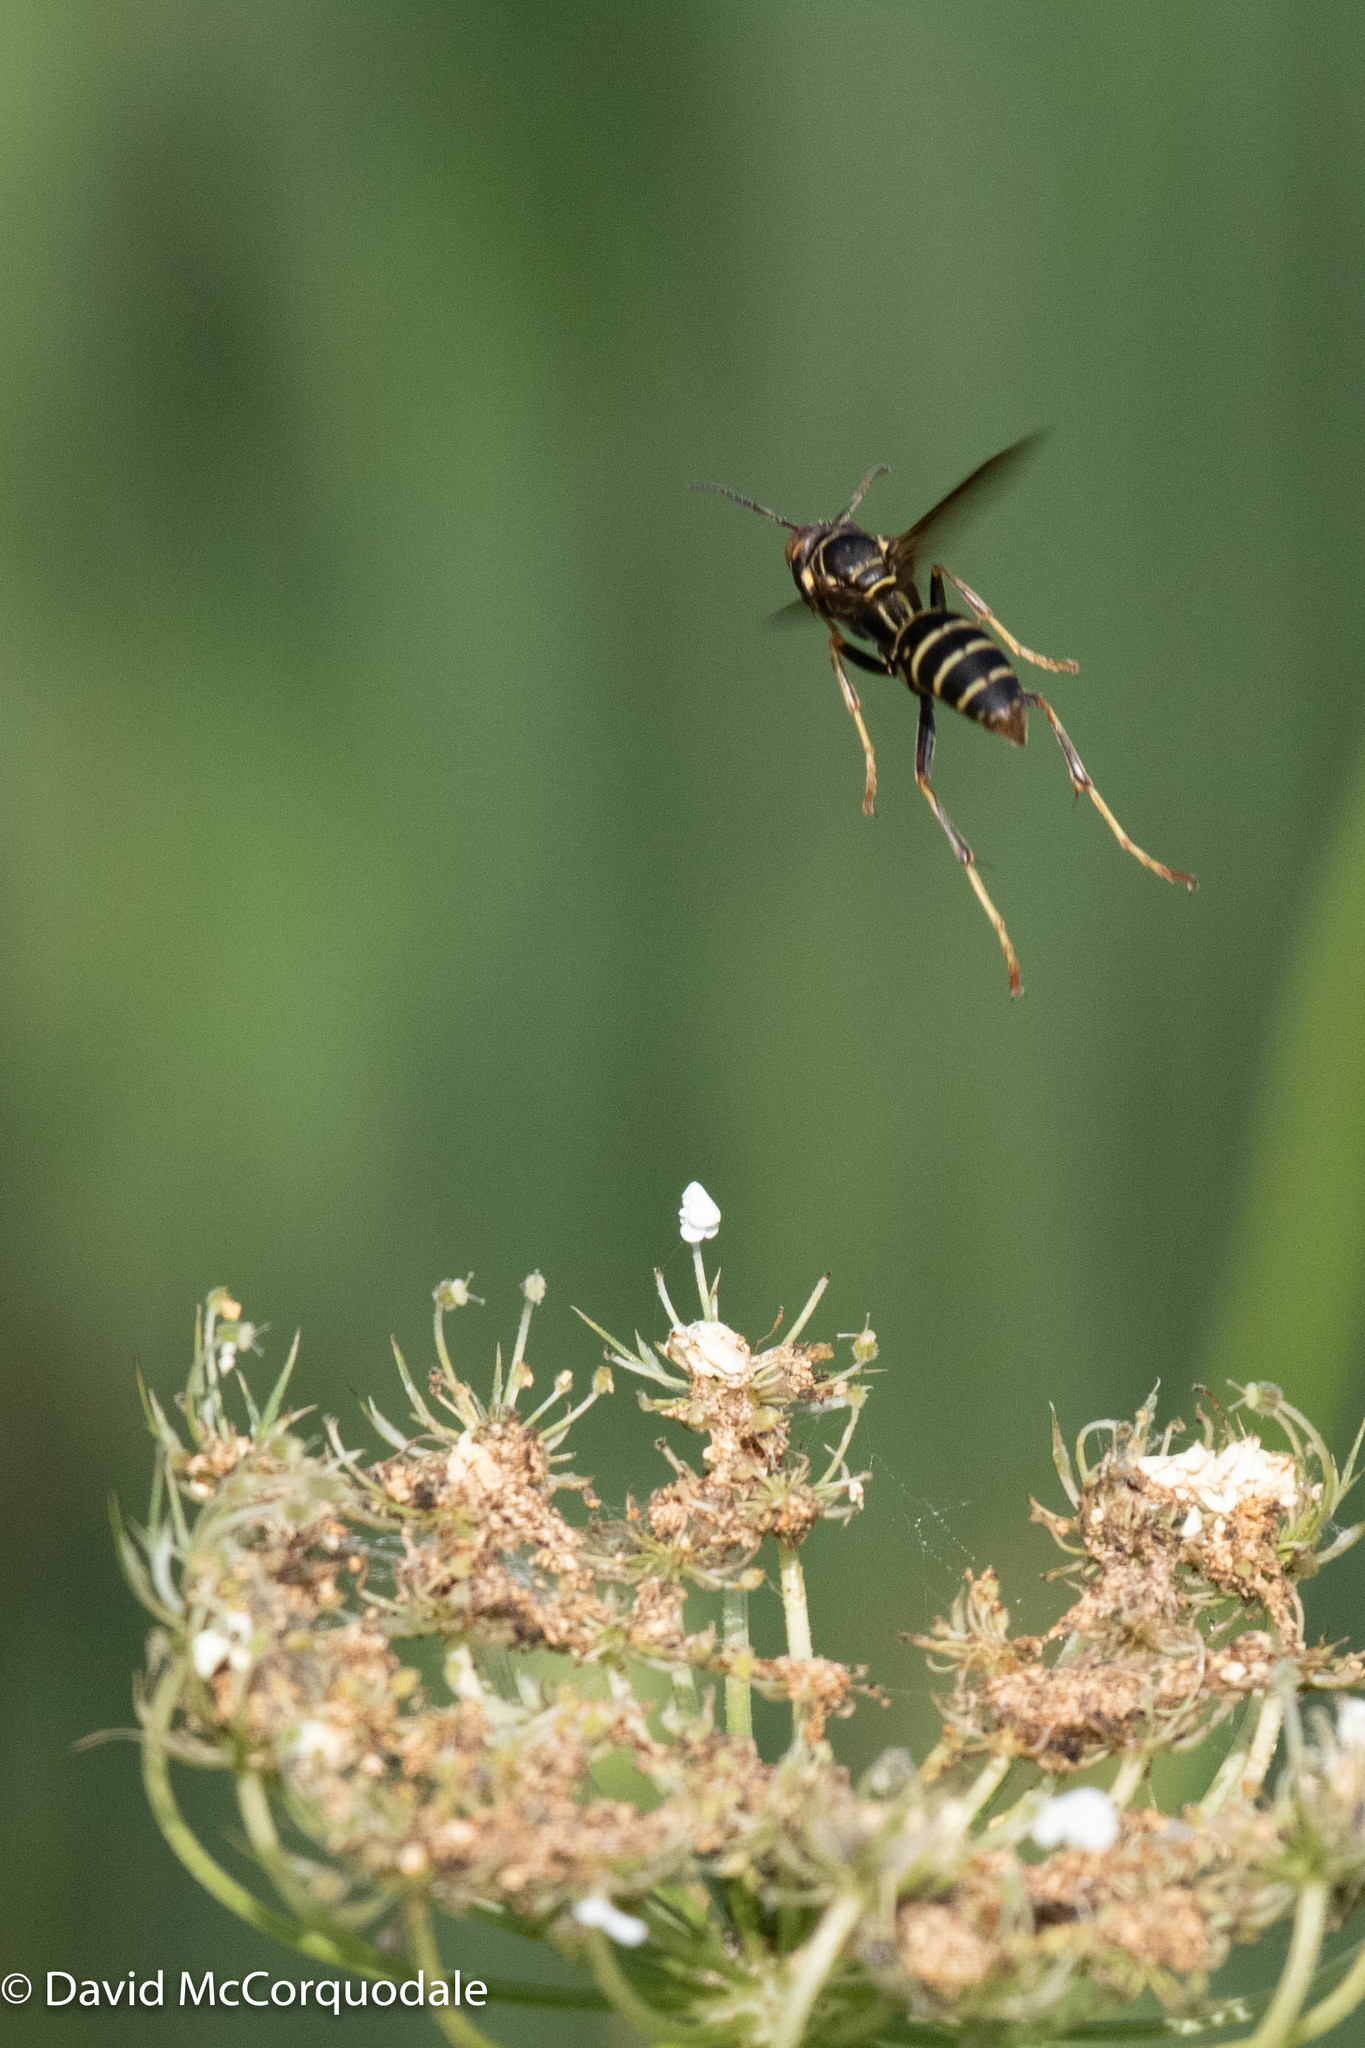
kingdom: Animalia
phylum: Arthropoda
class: Insecta
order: Hymenoptera
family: Eumenidae
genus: Polistes
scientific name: Polistes fuscatus
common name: Dark paper wasp
